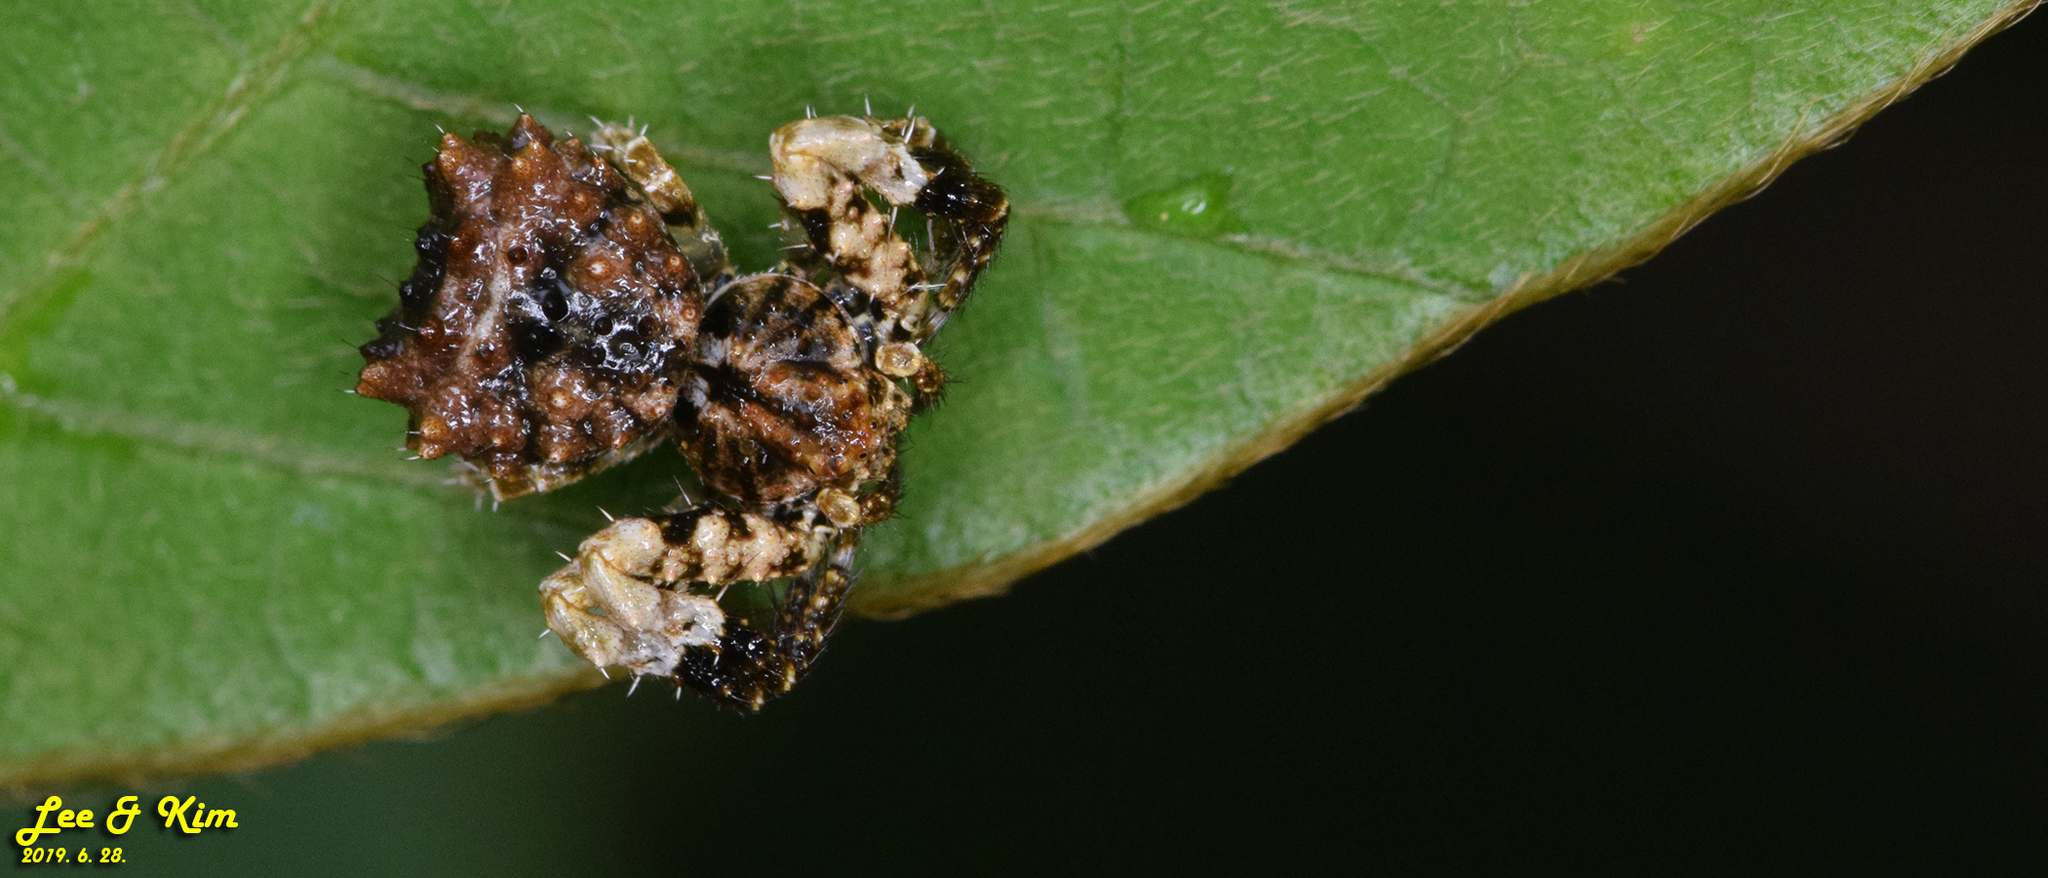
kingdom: Animalia
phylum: Arthropoda
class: Arachnida
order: Araneae
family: Thomisidae
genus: Phrynarachne
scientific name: Phrynarachne katoi
